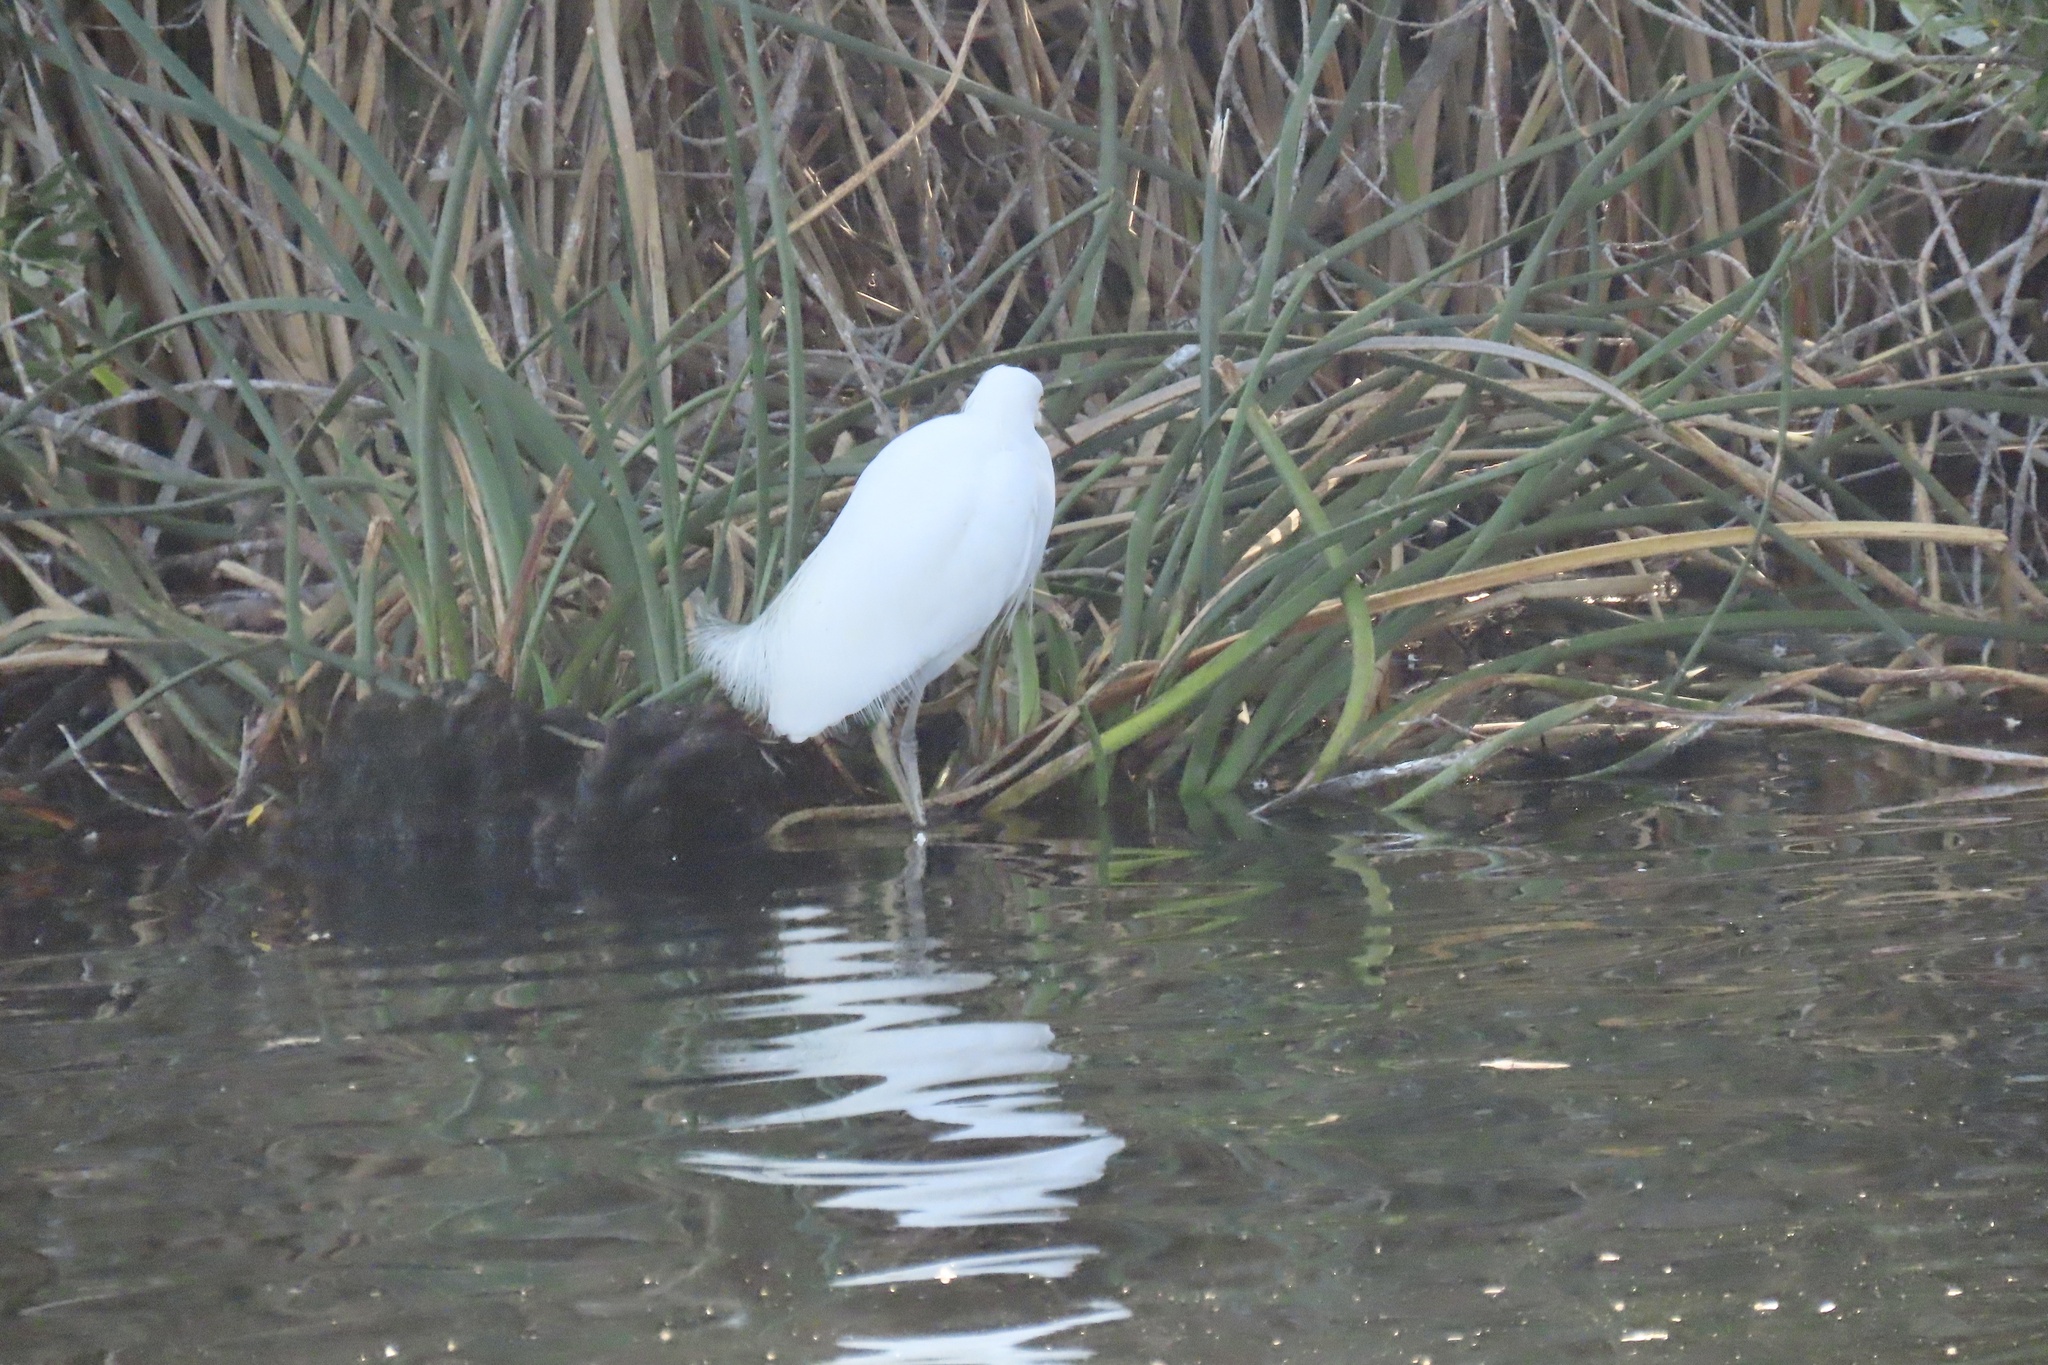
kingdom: Animalia
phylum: Chordata
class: Aves
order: Pelecaniformes
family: Ardeidae
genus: Egretta
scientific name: Egretta thula
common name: Snowy egret
